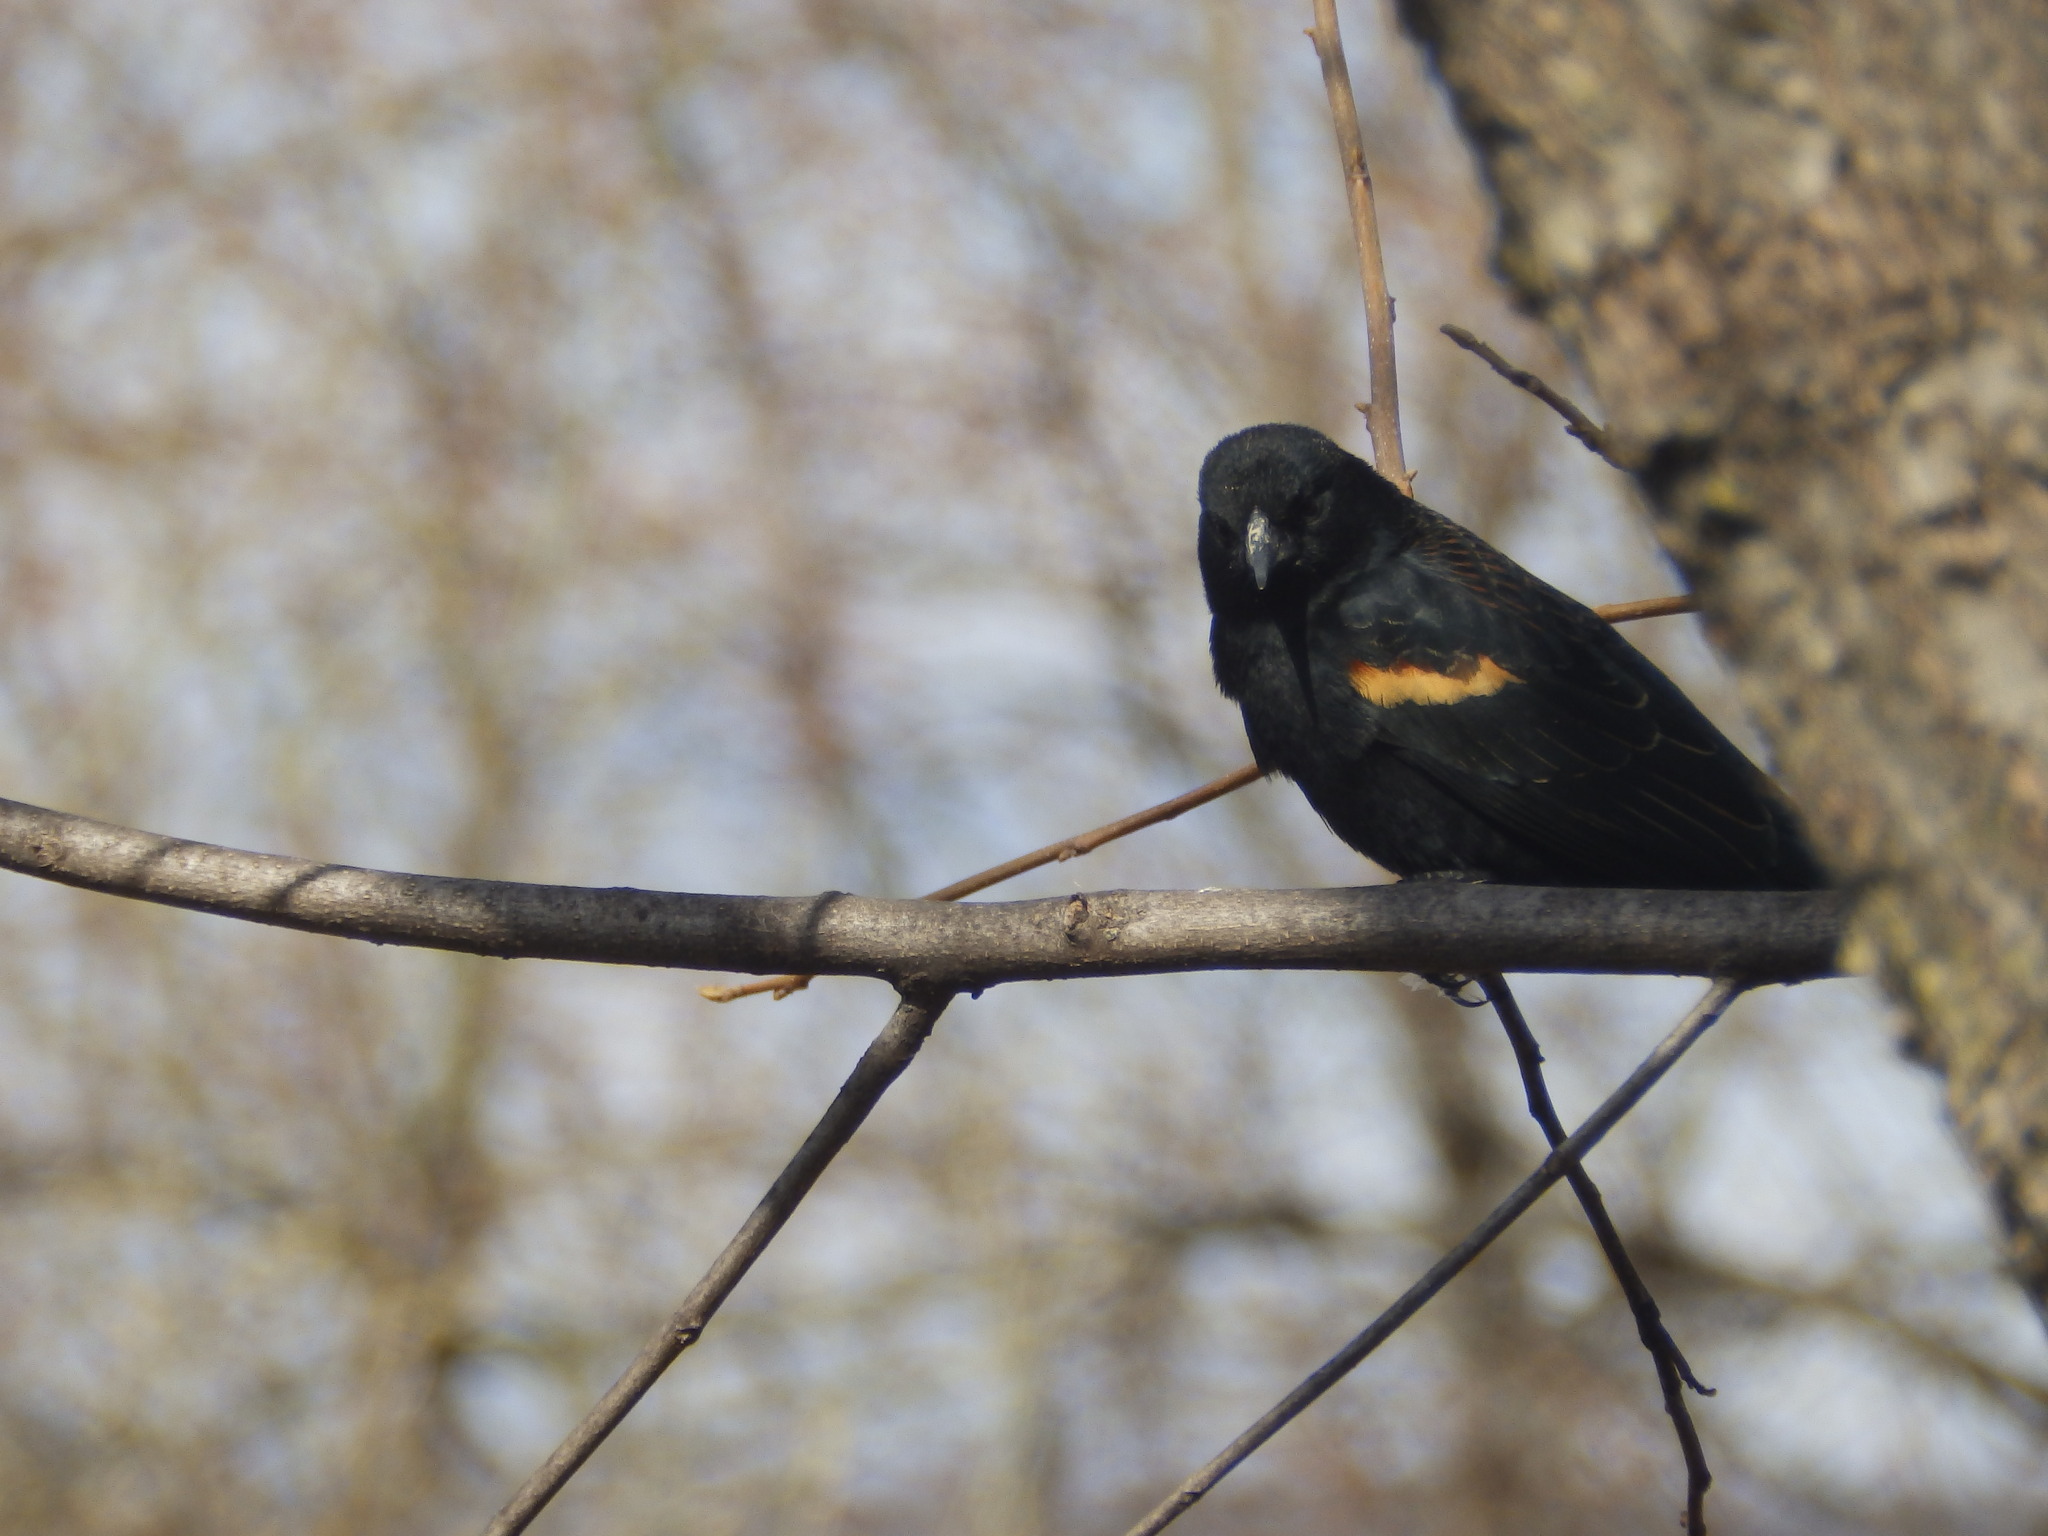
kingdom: Animalia
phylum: Chordata
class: Aves
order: Passeriformes
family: Icteridae
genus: Agelaius
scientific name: Agelaius phoeniceus
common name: Red-winged blackbird
